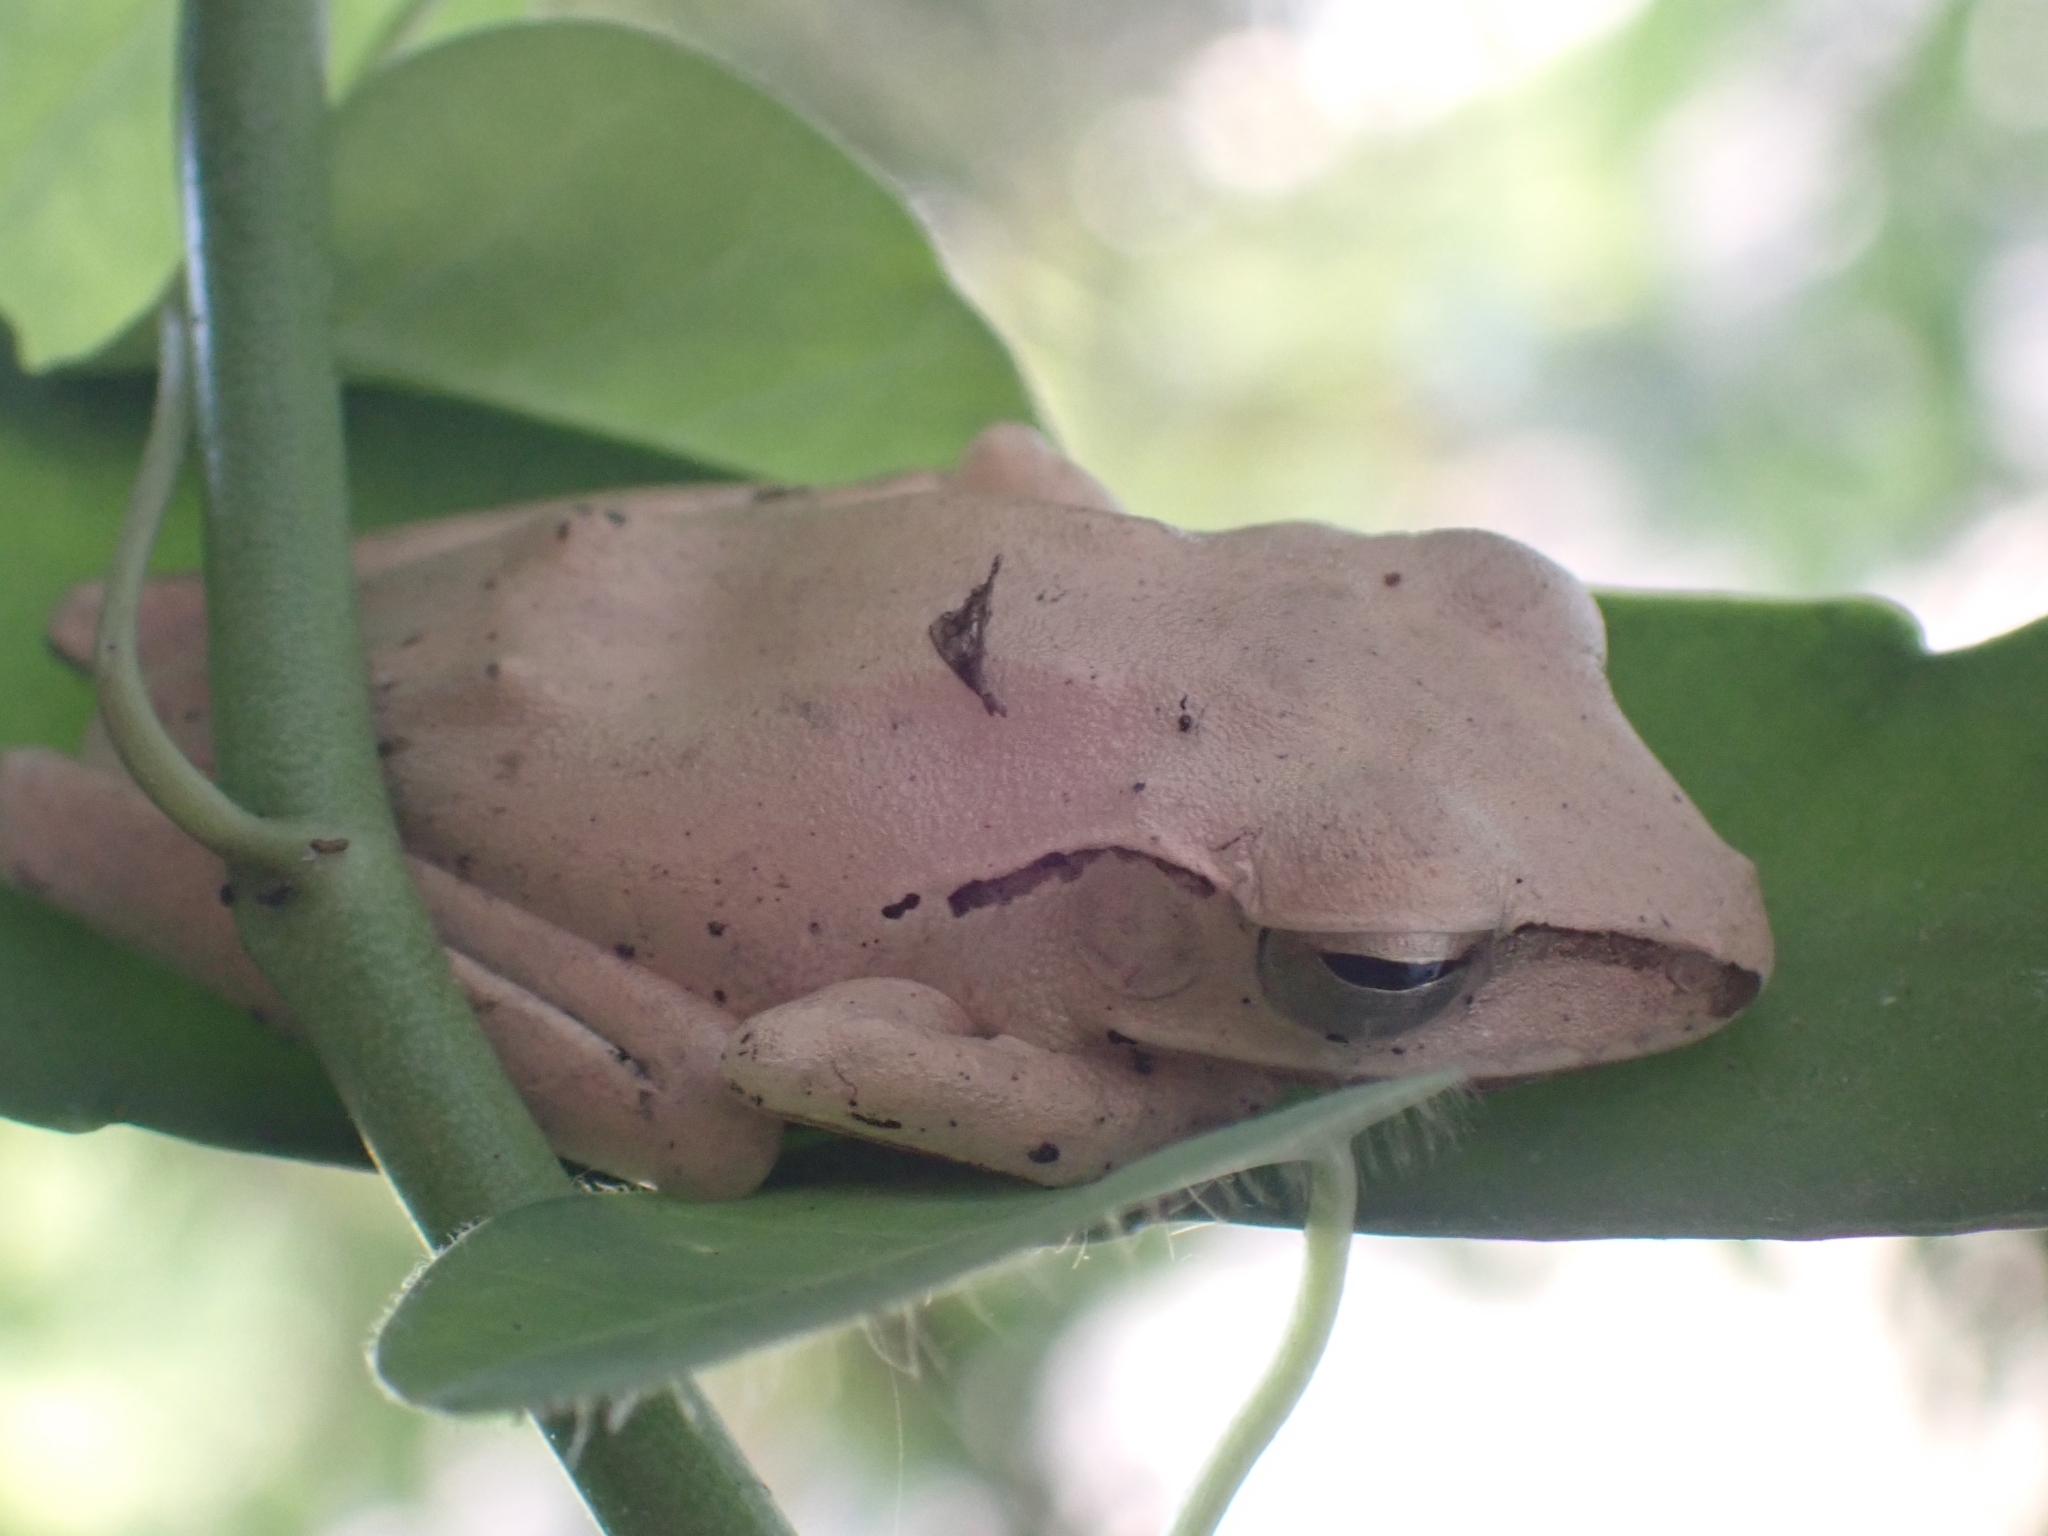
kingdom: Animalia
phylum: Chordata
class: Amphibia
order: Anura
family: Rhacophoridae
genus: Polypedates
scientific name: Polypedates megacephalus
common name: Hong kong whipping frog
